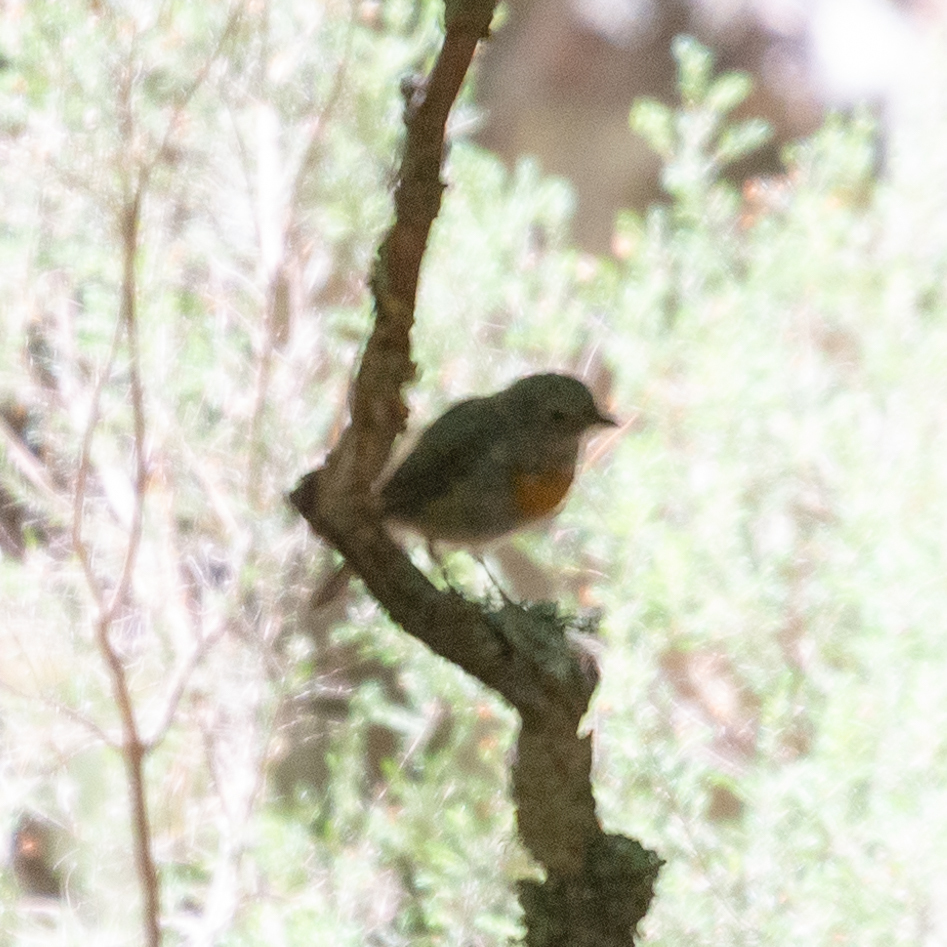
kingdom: Animalia
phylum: Chordata
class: Aves
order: Passeriformes
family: Muscicapidae
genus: Erithacus
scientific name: Erithacus rubecula
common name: European robin
